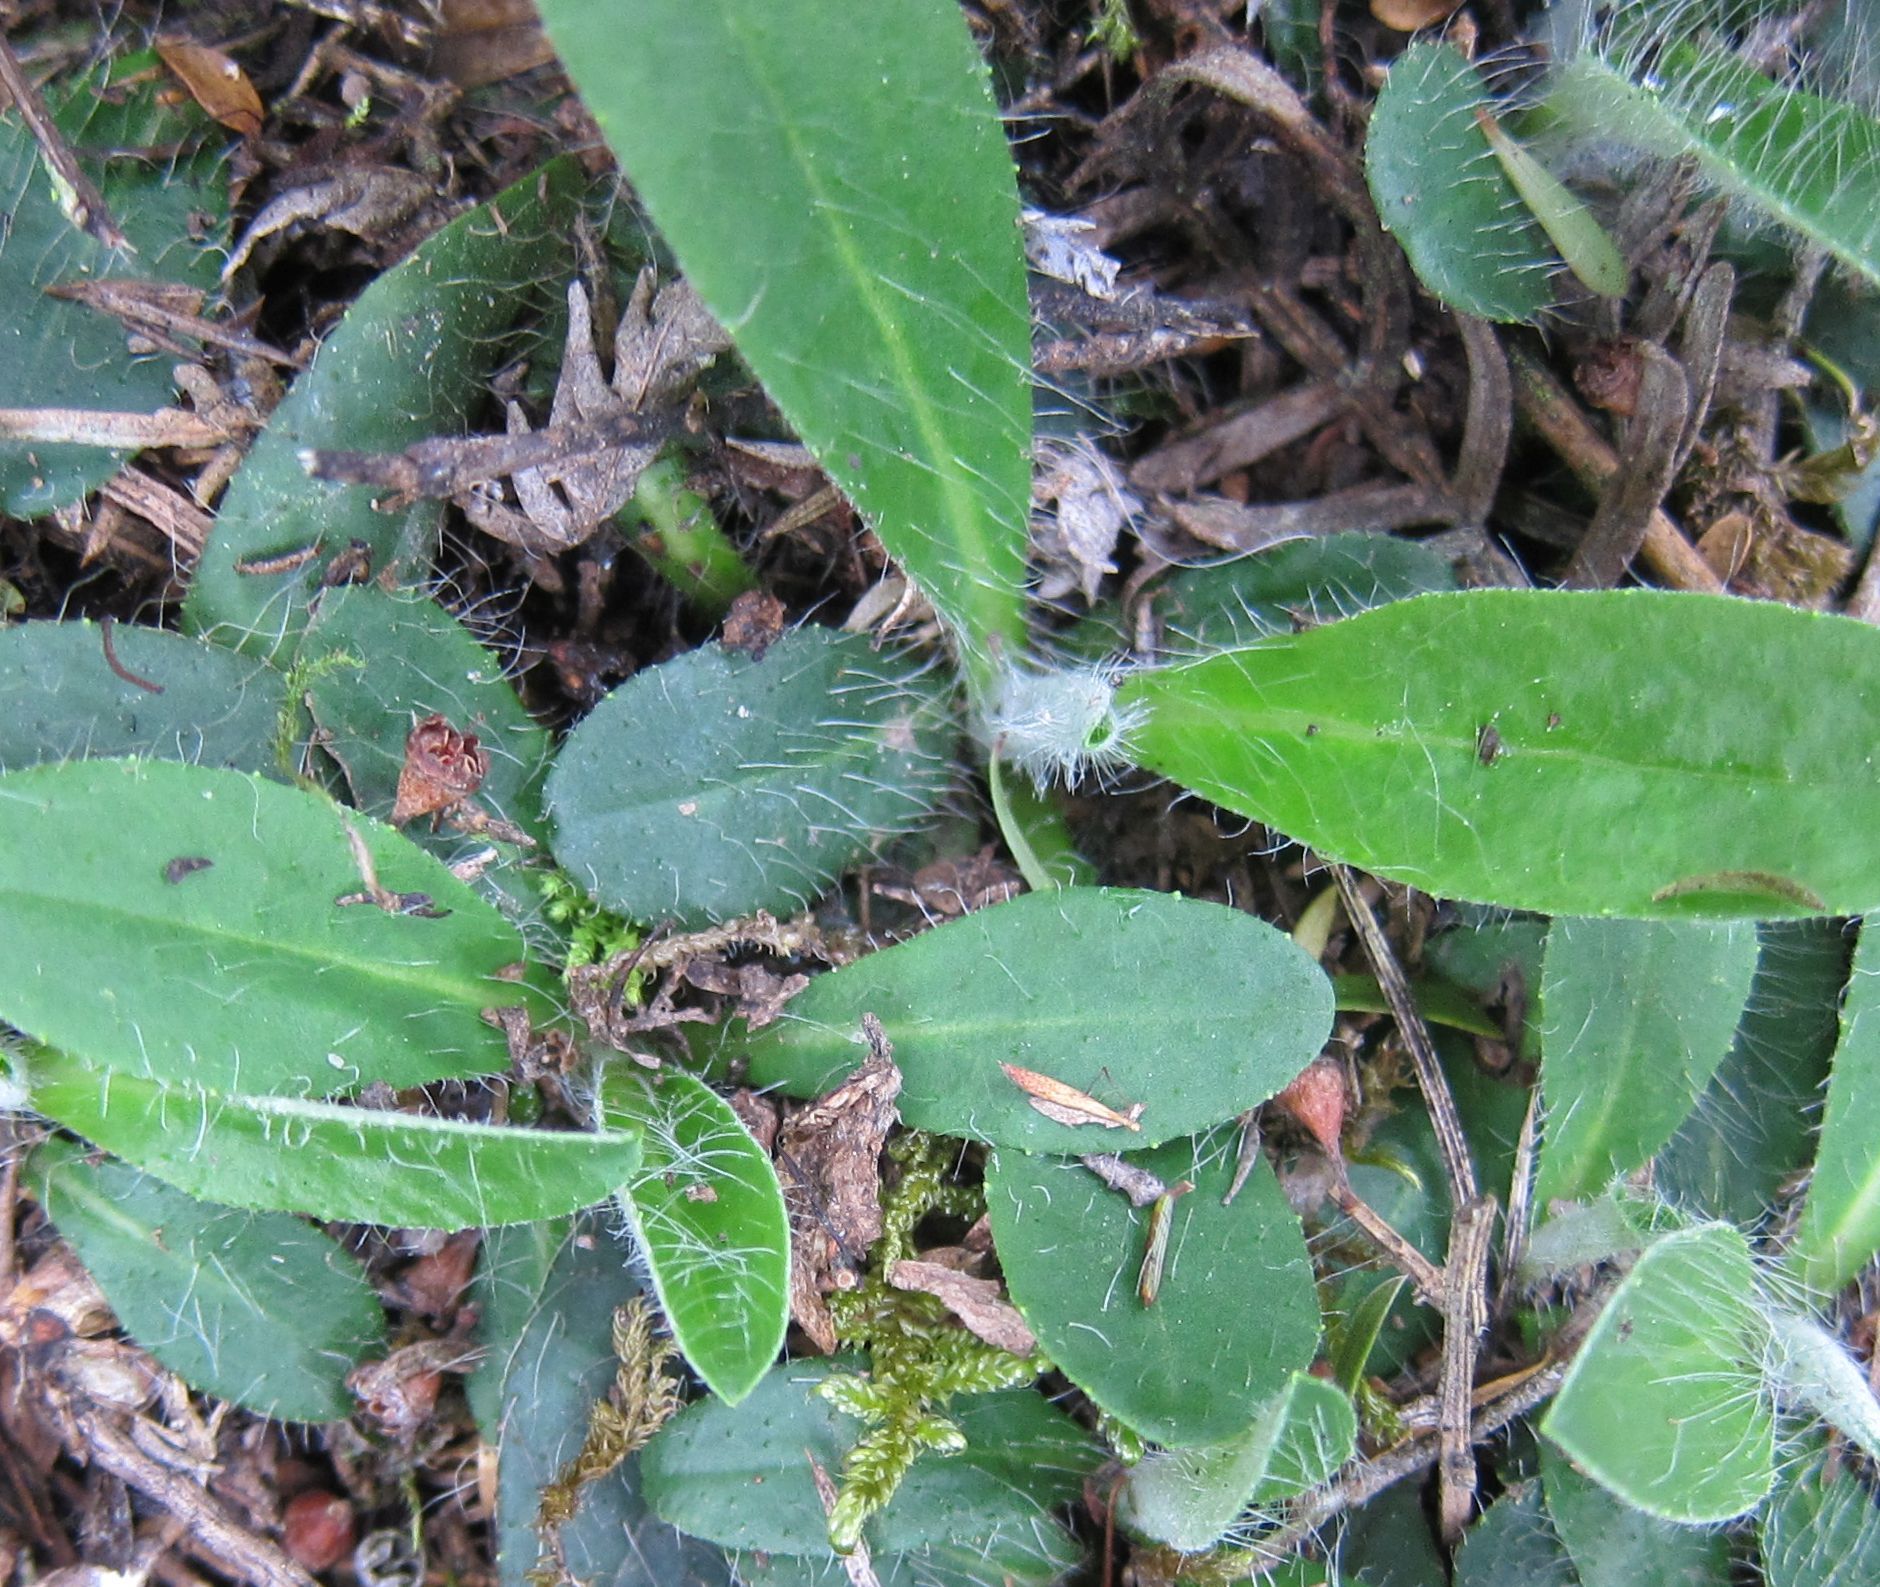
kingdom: Plantae
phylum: Tracheophyta
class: Magnoliopsida
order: Asterales
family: Asteraceae
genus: Pilosella
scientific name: Pilosella officinarum
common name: Mouse-ear hawkweed
